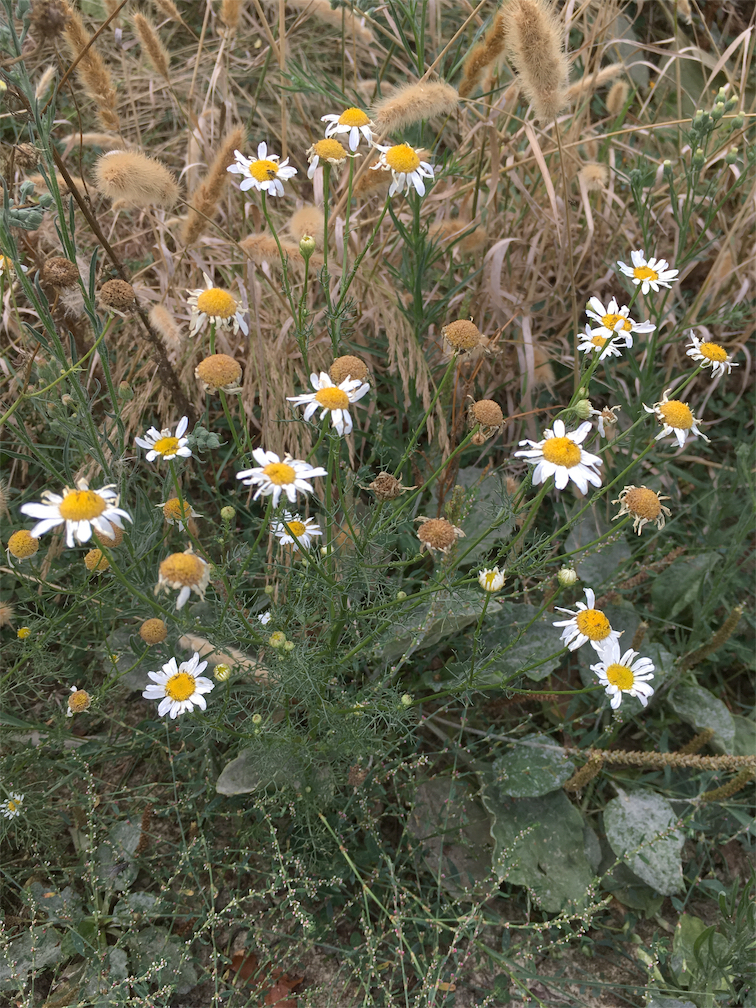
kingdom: Plantae
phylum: Tracheophyta
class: Magnoliopsida
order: Asterales
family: Asteraceae
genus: Tripleurospermum
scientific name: Tripleurospermum inodorum
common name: Scentless mayweed
